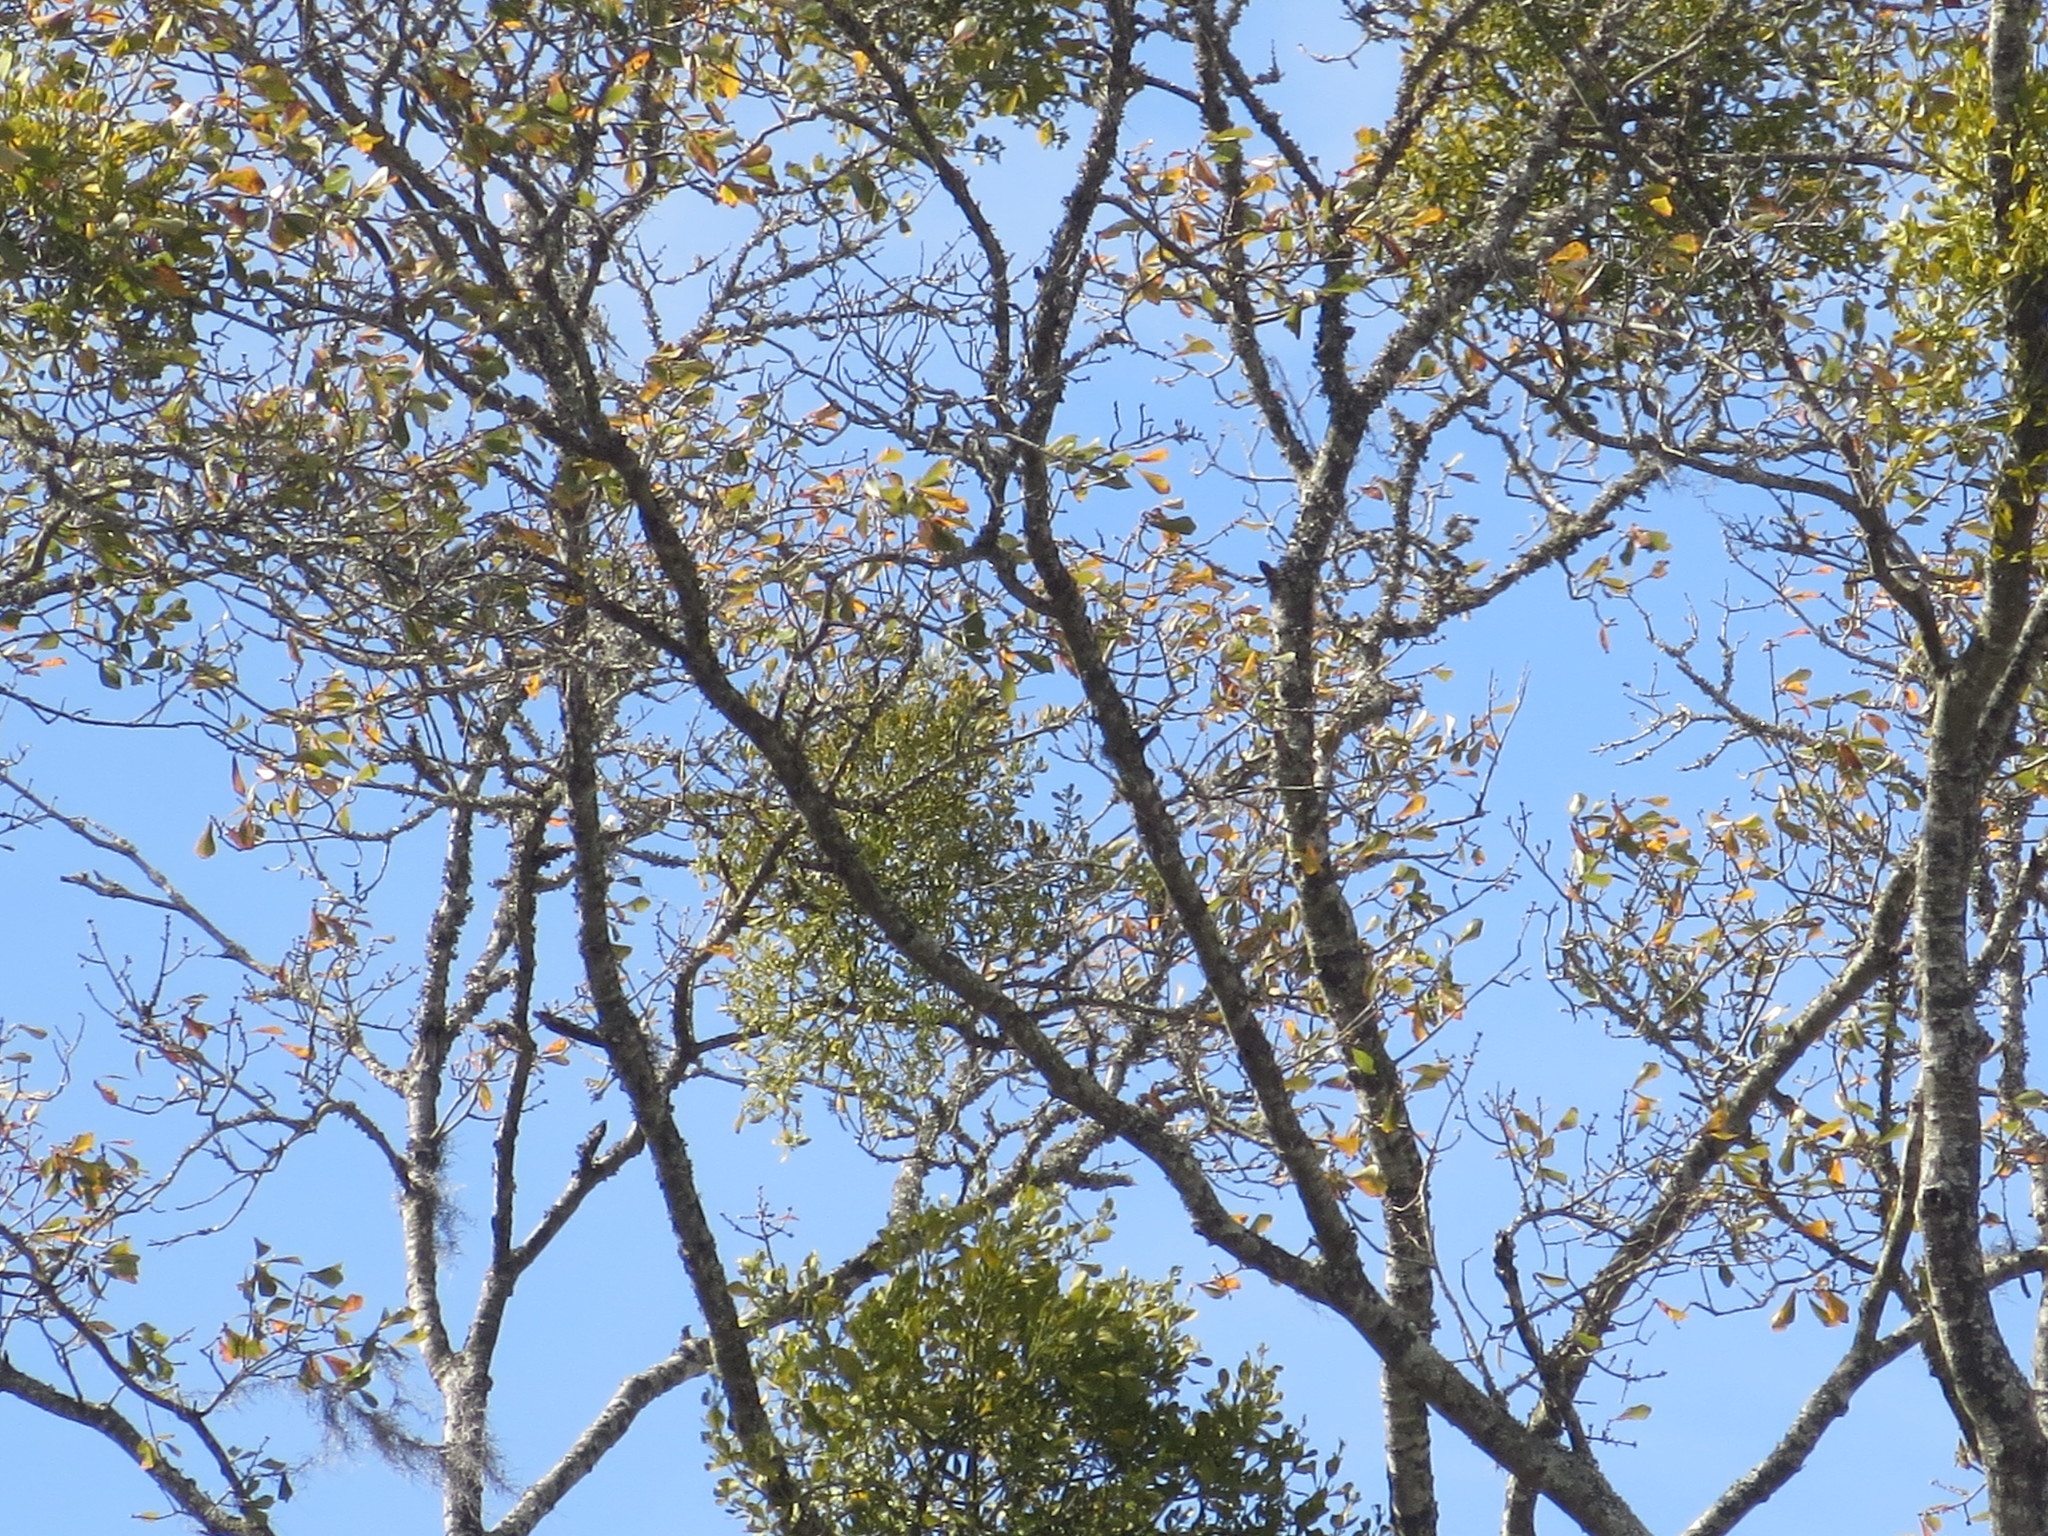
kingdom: Plantae
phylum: Tracheophyta
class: Magnoliopsida
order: Santalales
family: Viscaceae
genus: Phoradendron
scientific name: Phoradendron leucarpum
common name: Pacific mistletoe
